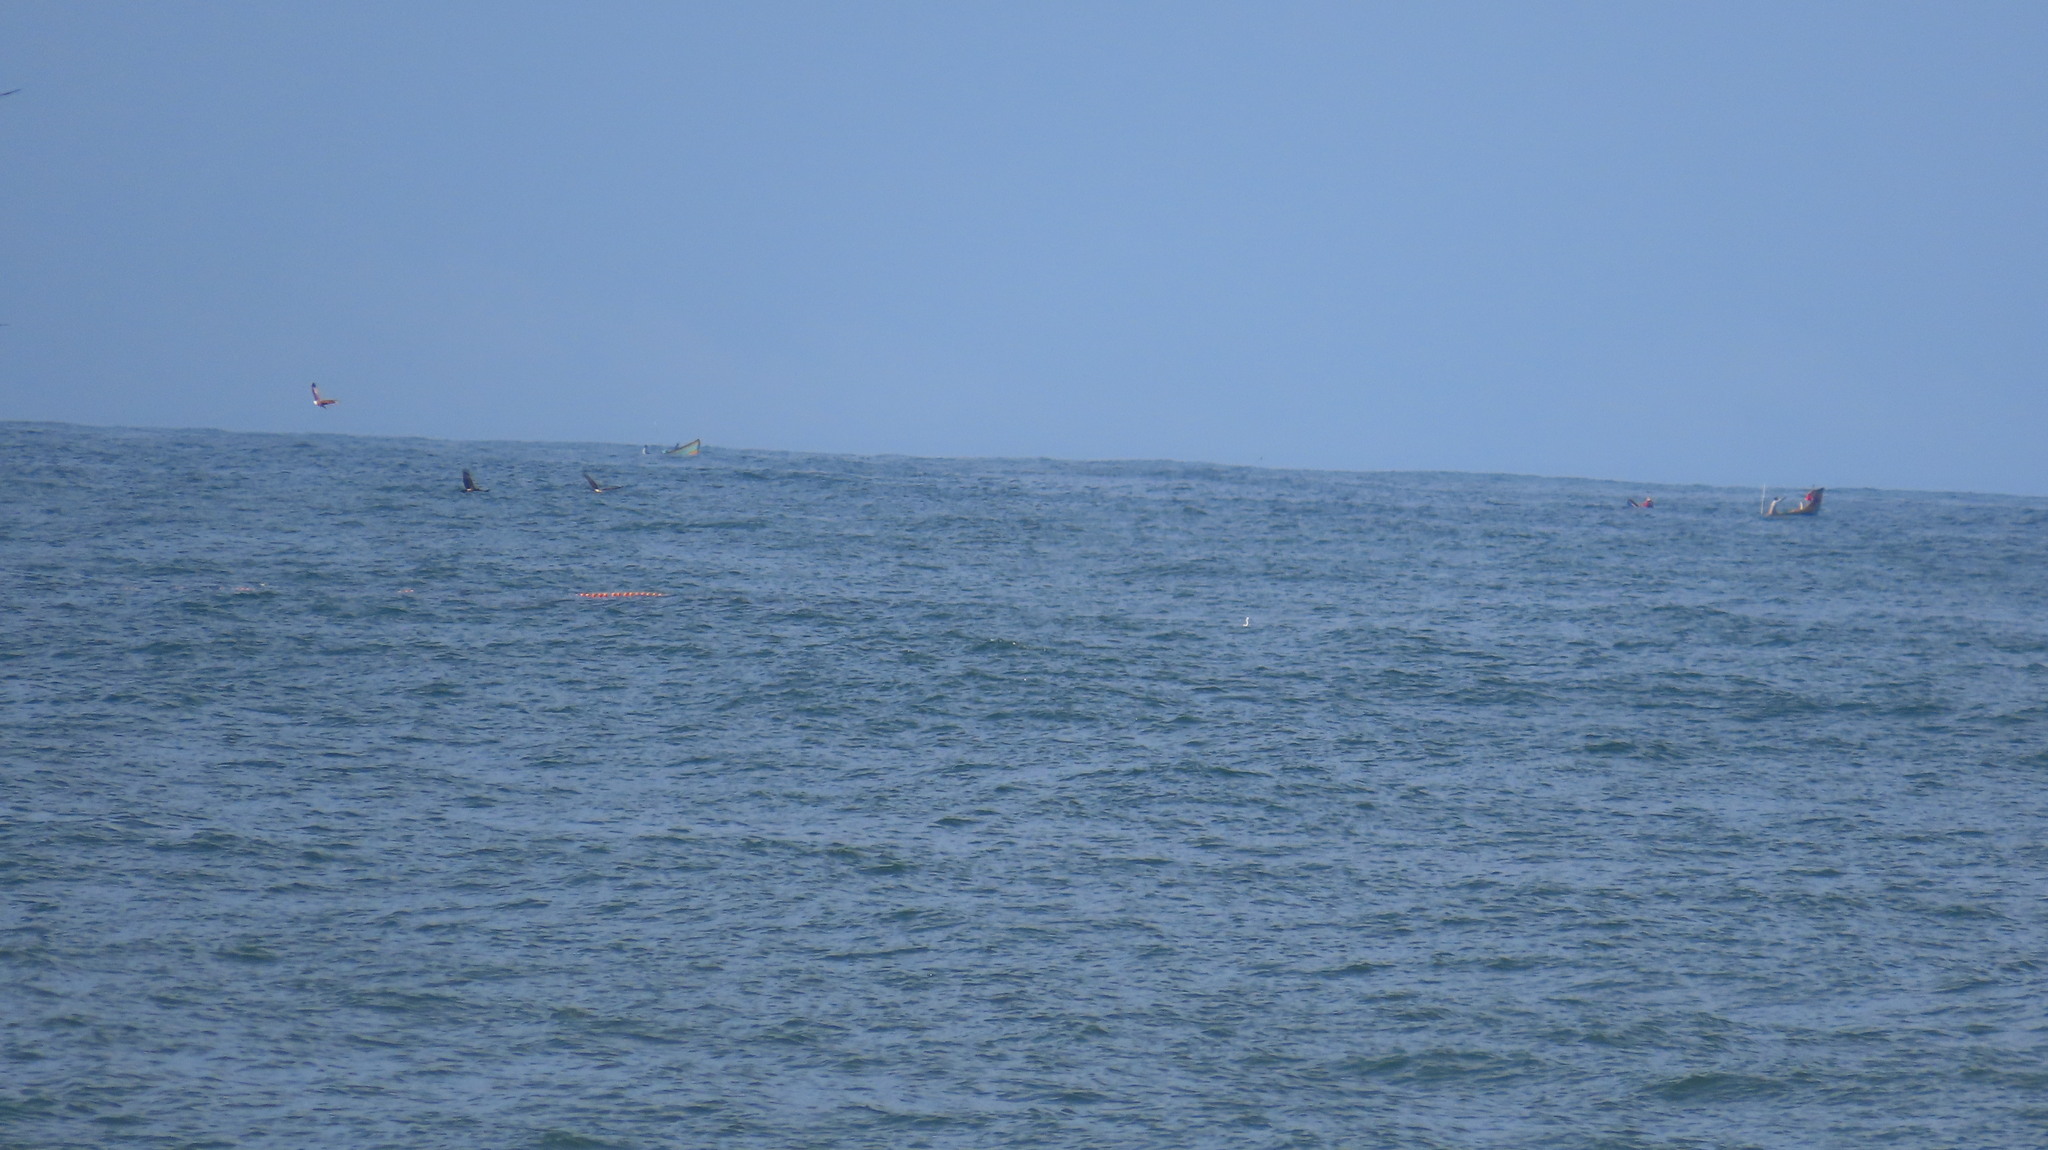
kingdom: Animalia
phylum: Chordata
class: Aves
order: Accipitriformes
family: Accipitridae
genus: Haliastur
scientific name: Haliastur indus
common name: Brahminy kite
